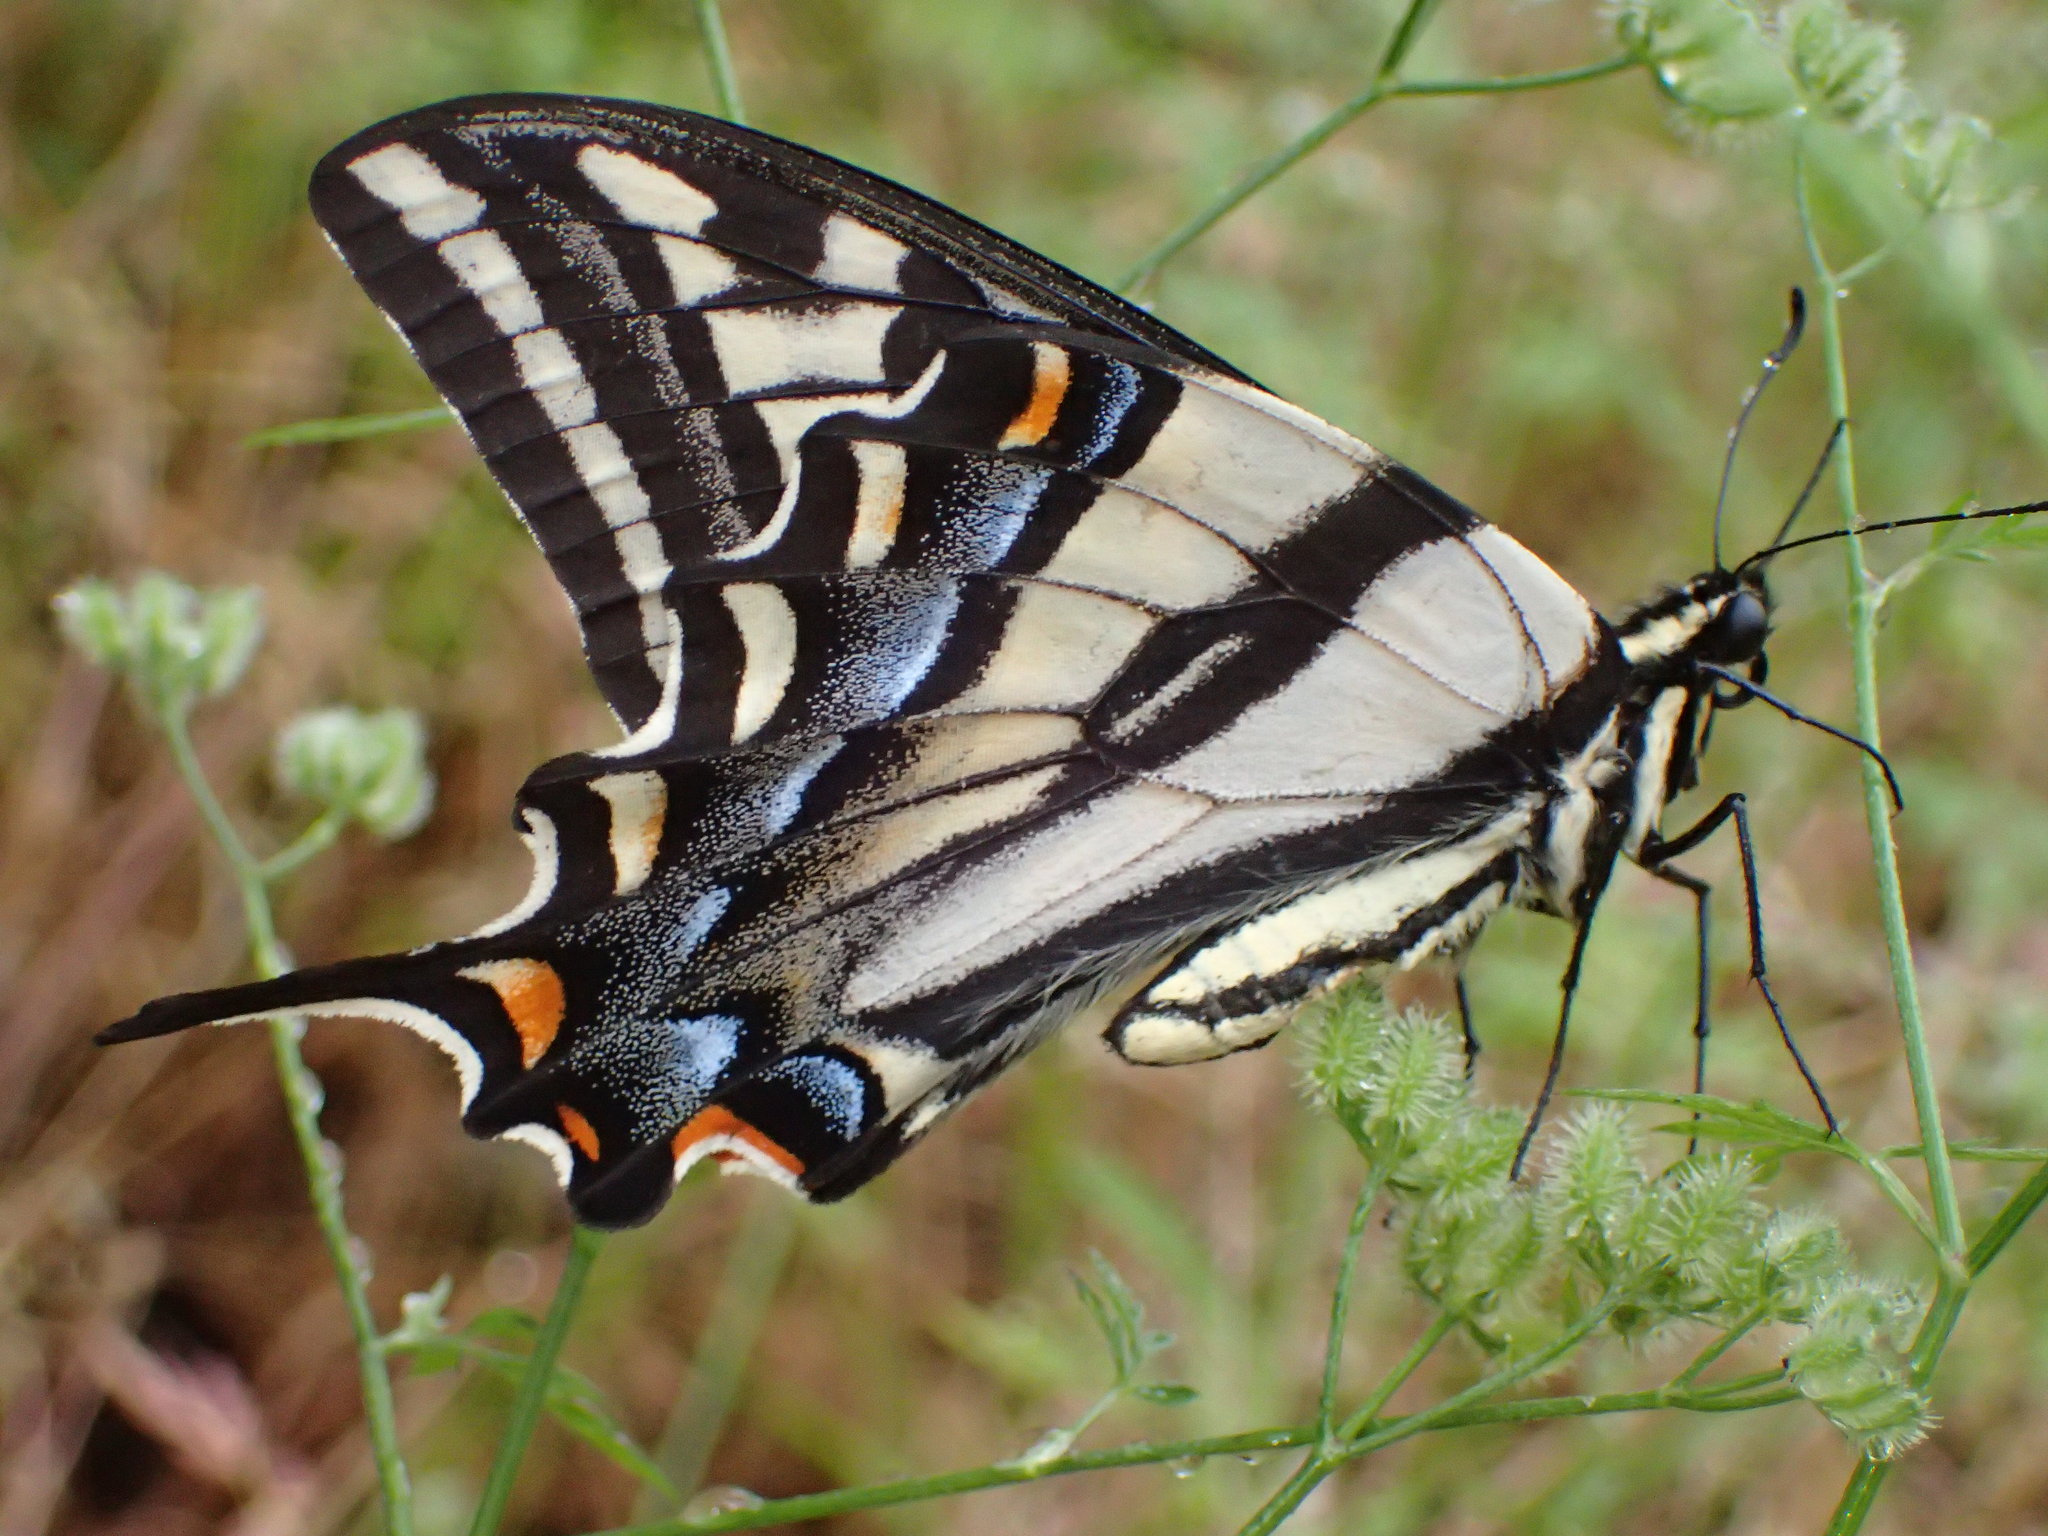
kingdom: Animalia
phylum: Arthropoda
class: Insecta
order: Lepidoptera
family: Papilionidae
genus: Papilio
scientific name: Papilio eurymedon
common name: Pale tiger swallowtail
